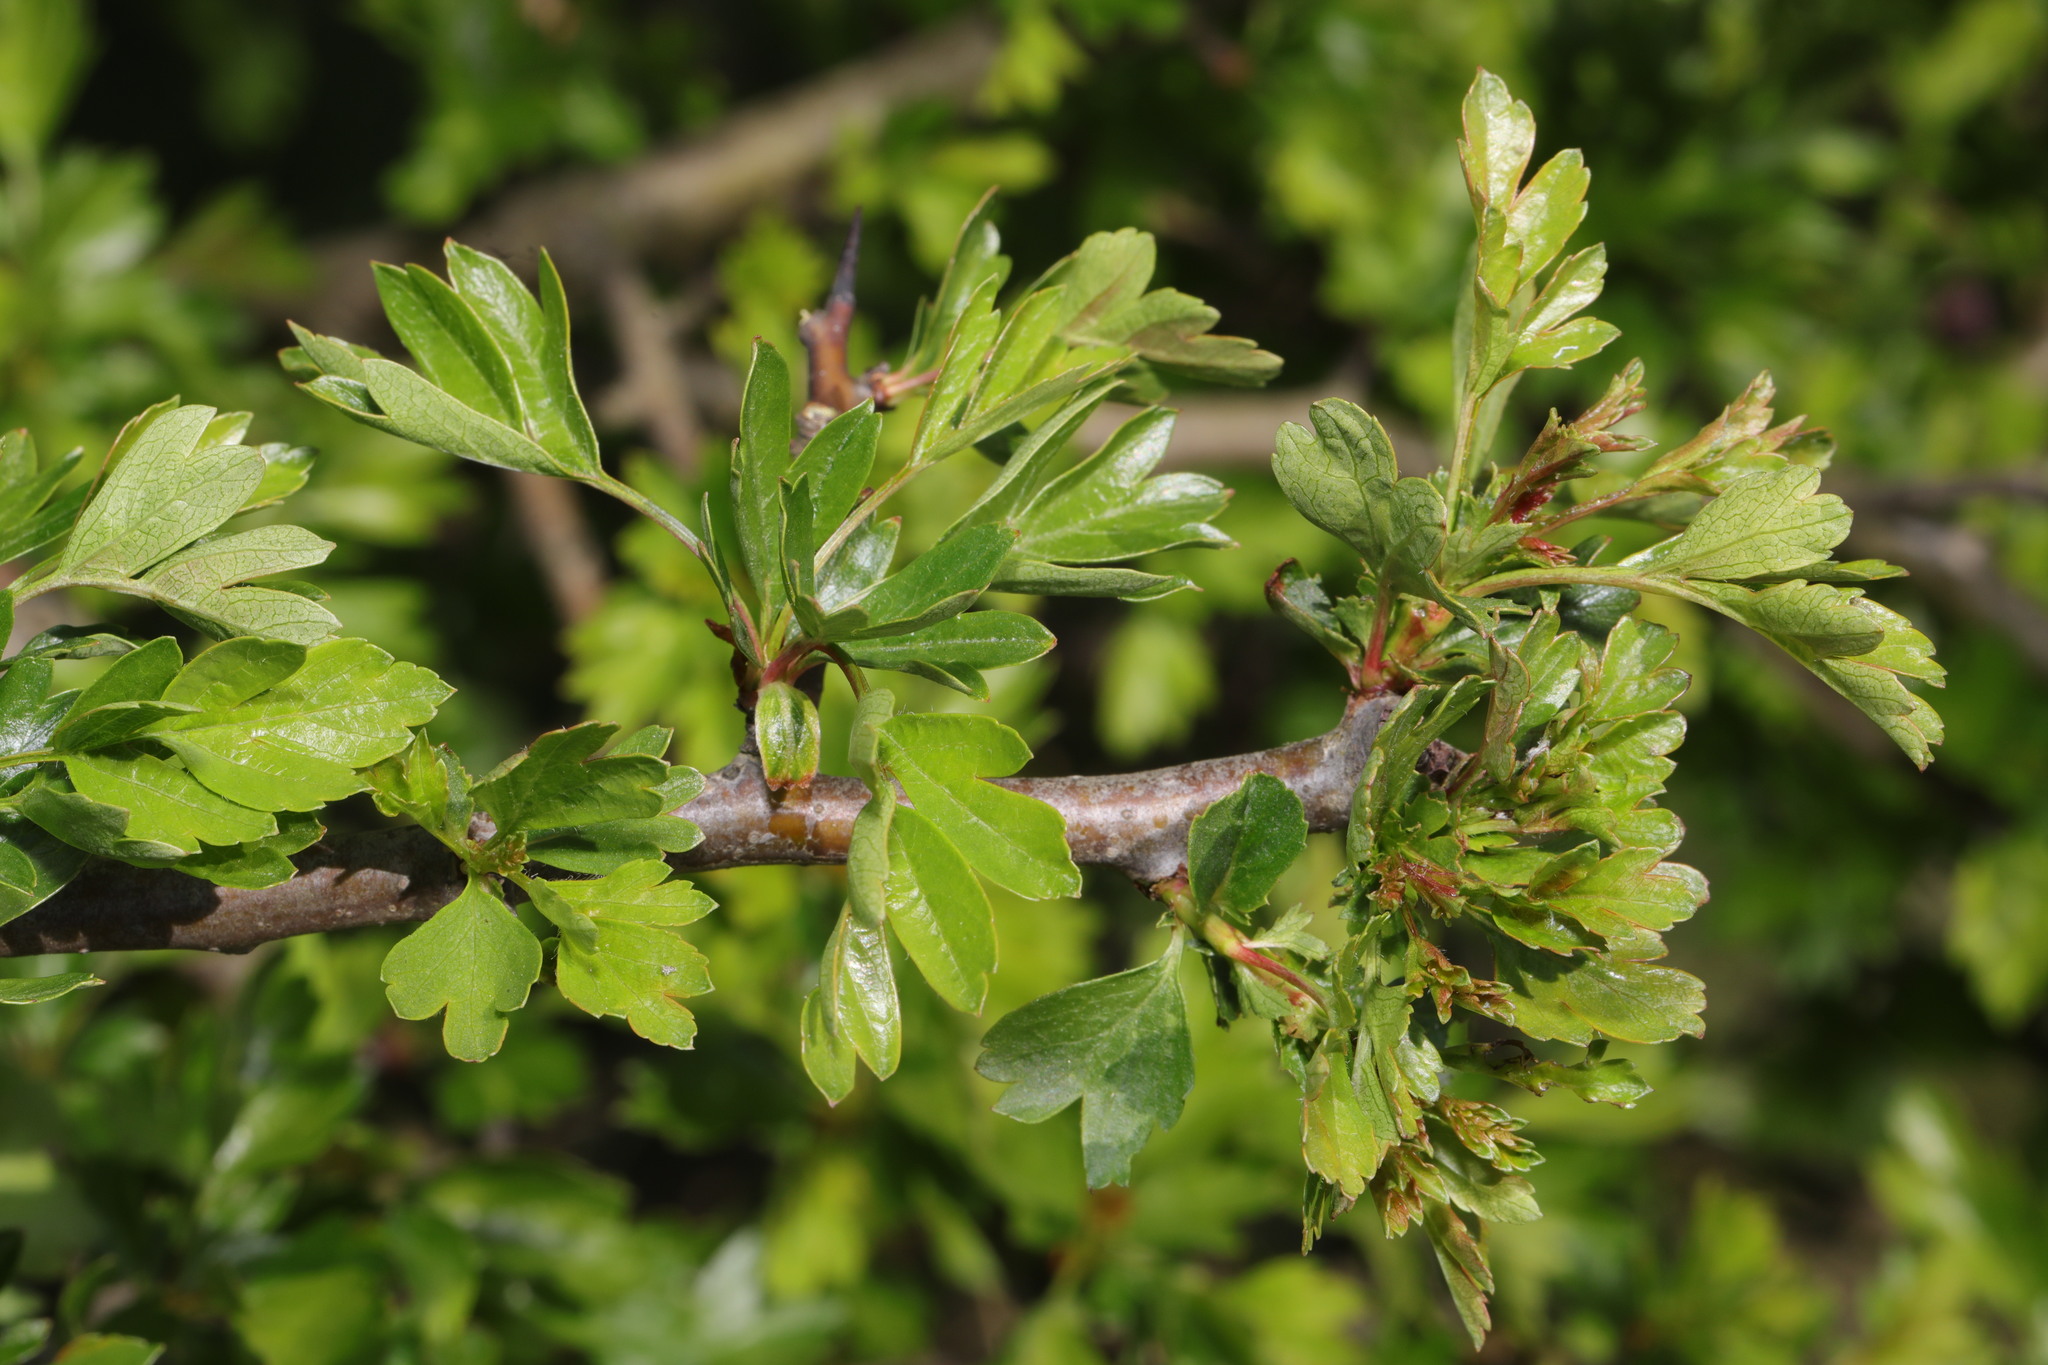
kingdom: Plantae
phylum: Tracheophyta
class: Magnoliopsida
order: Rosales
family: Rosaceae
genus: Crataegus
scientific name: Crataegus monogyna
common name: Hawthorn
